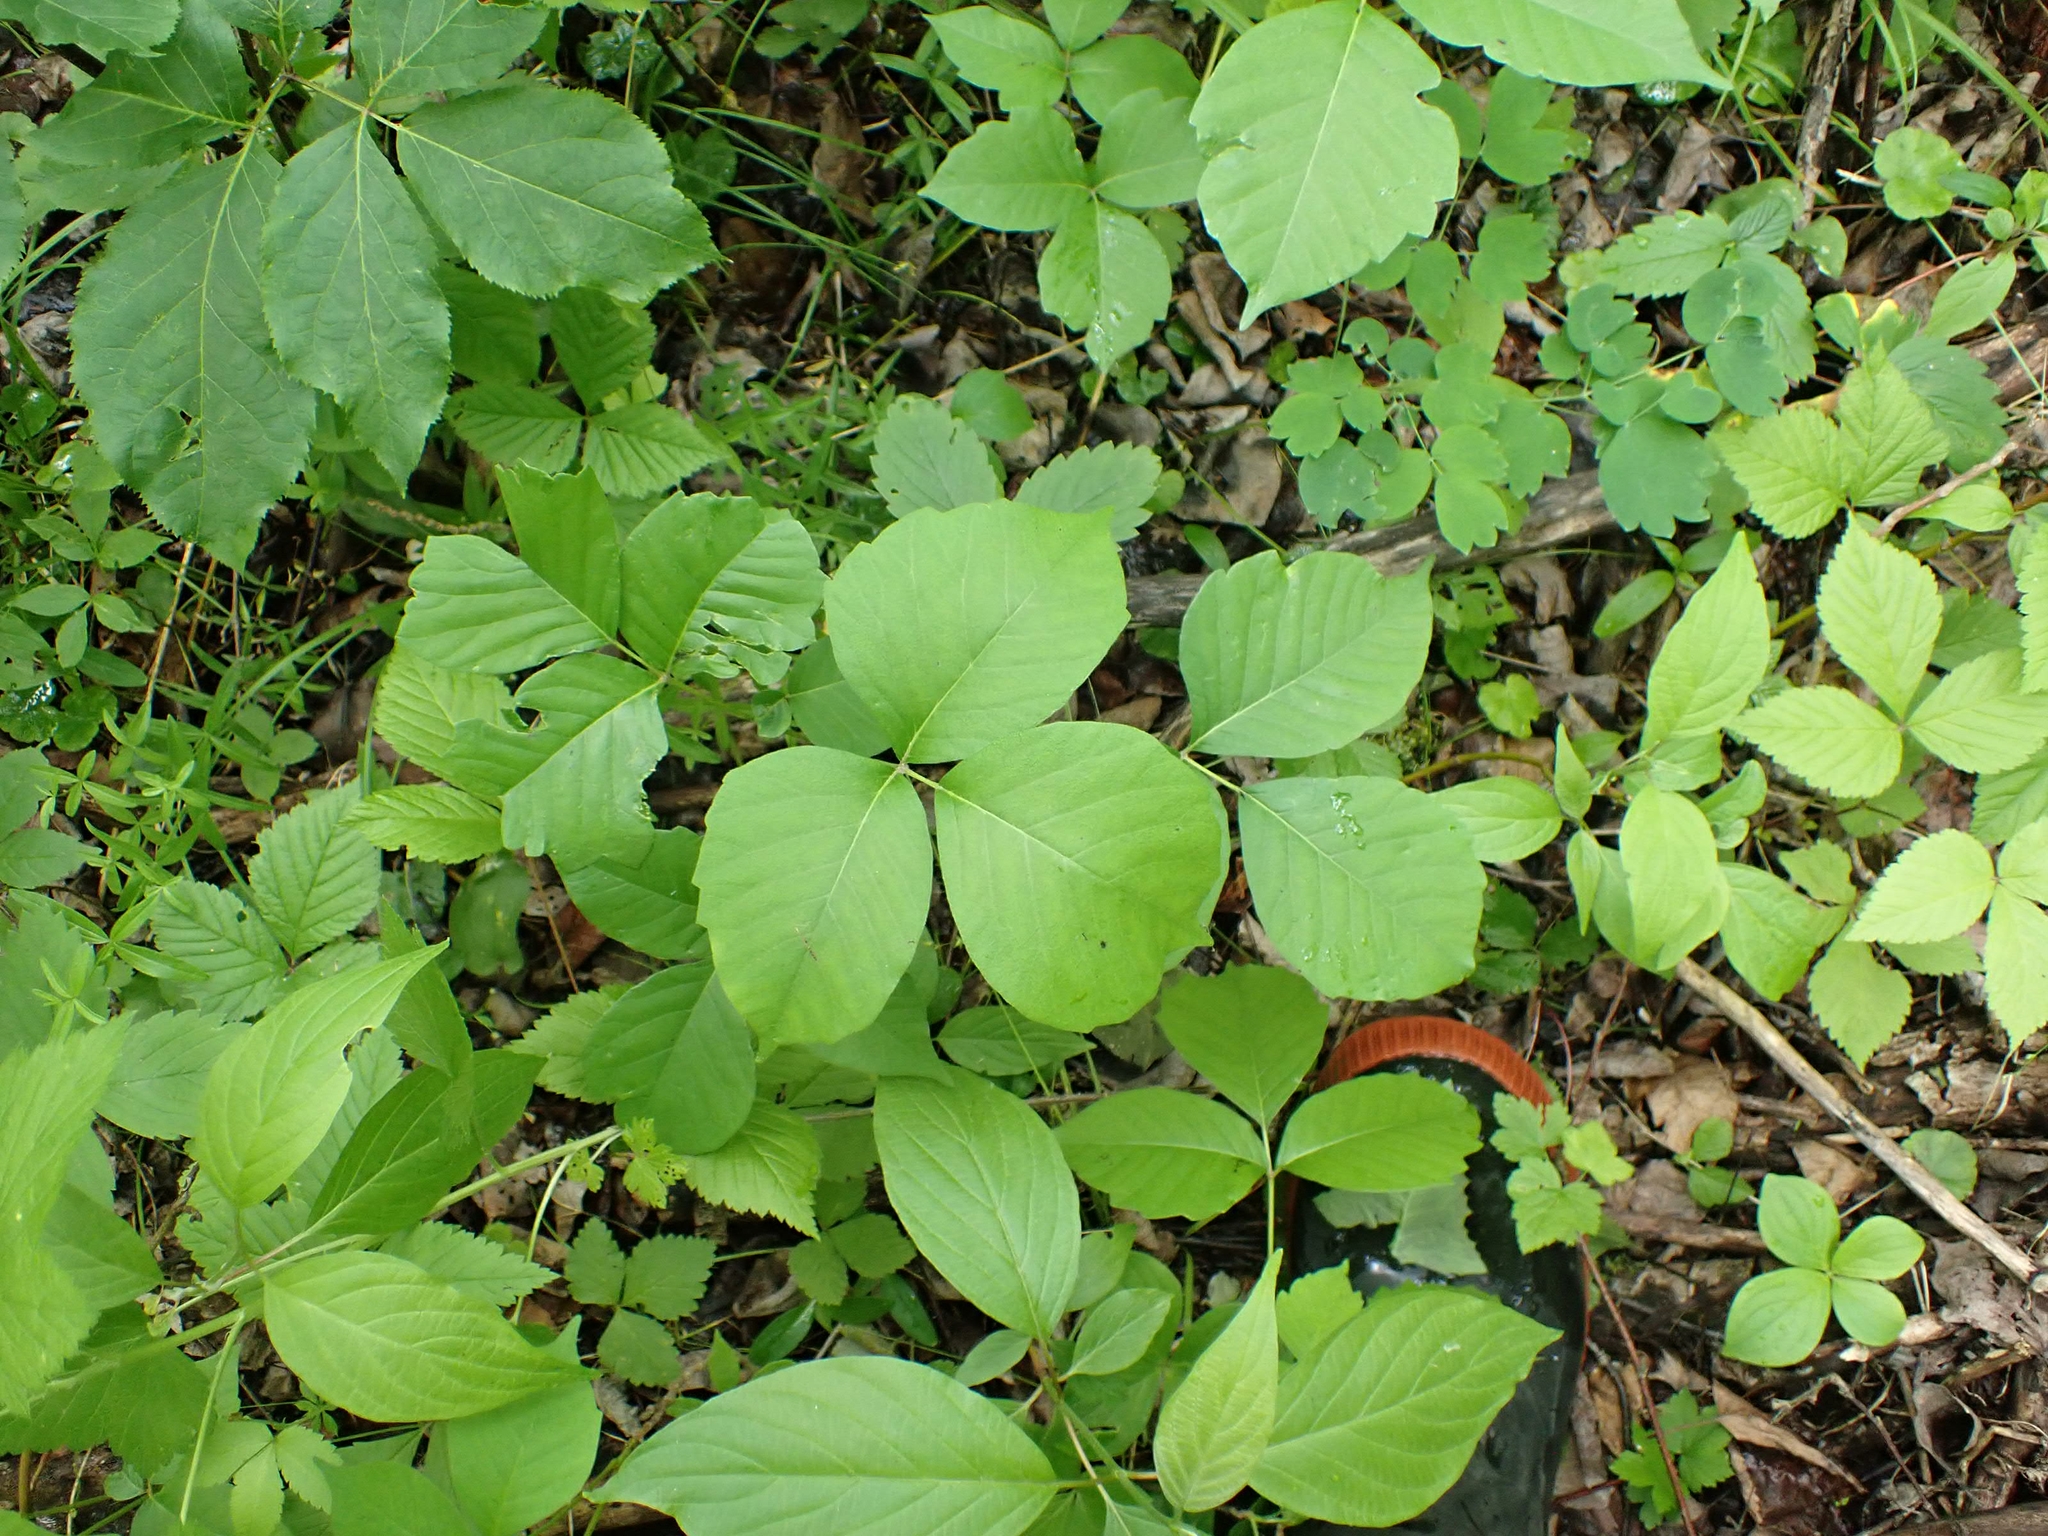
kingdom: Plantae
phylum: Tracheophyta
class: Magnoliopsida
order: Sapindales
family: Anacardiaceae
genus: Toxicodendron
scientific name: Toxicodendron rydbergii
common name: Rydberg's poison-ivy
